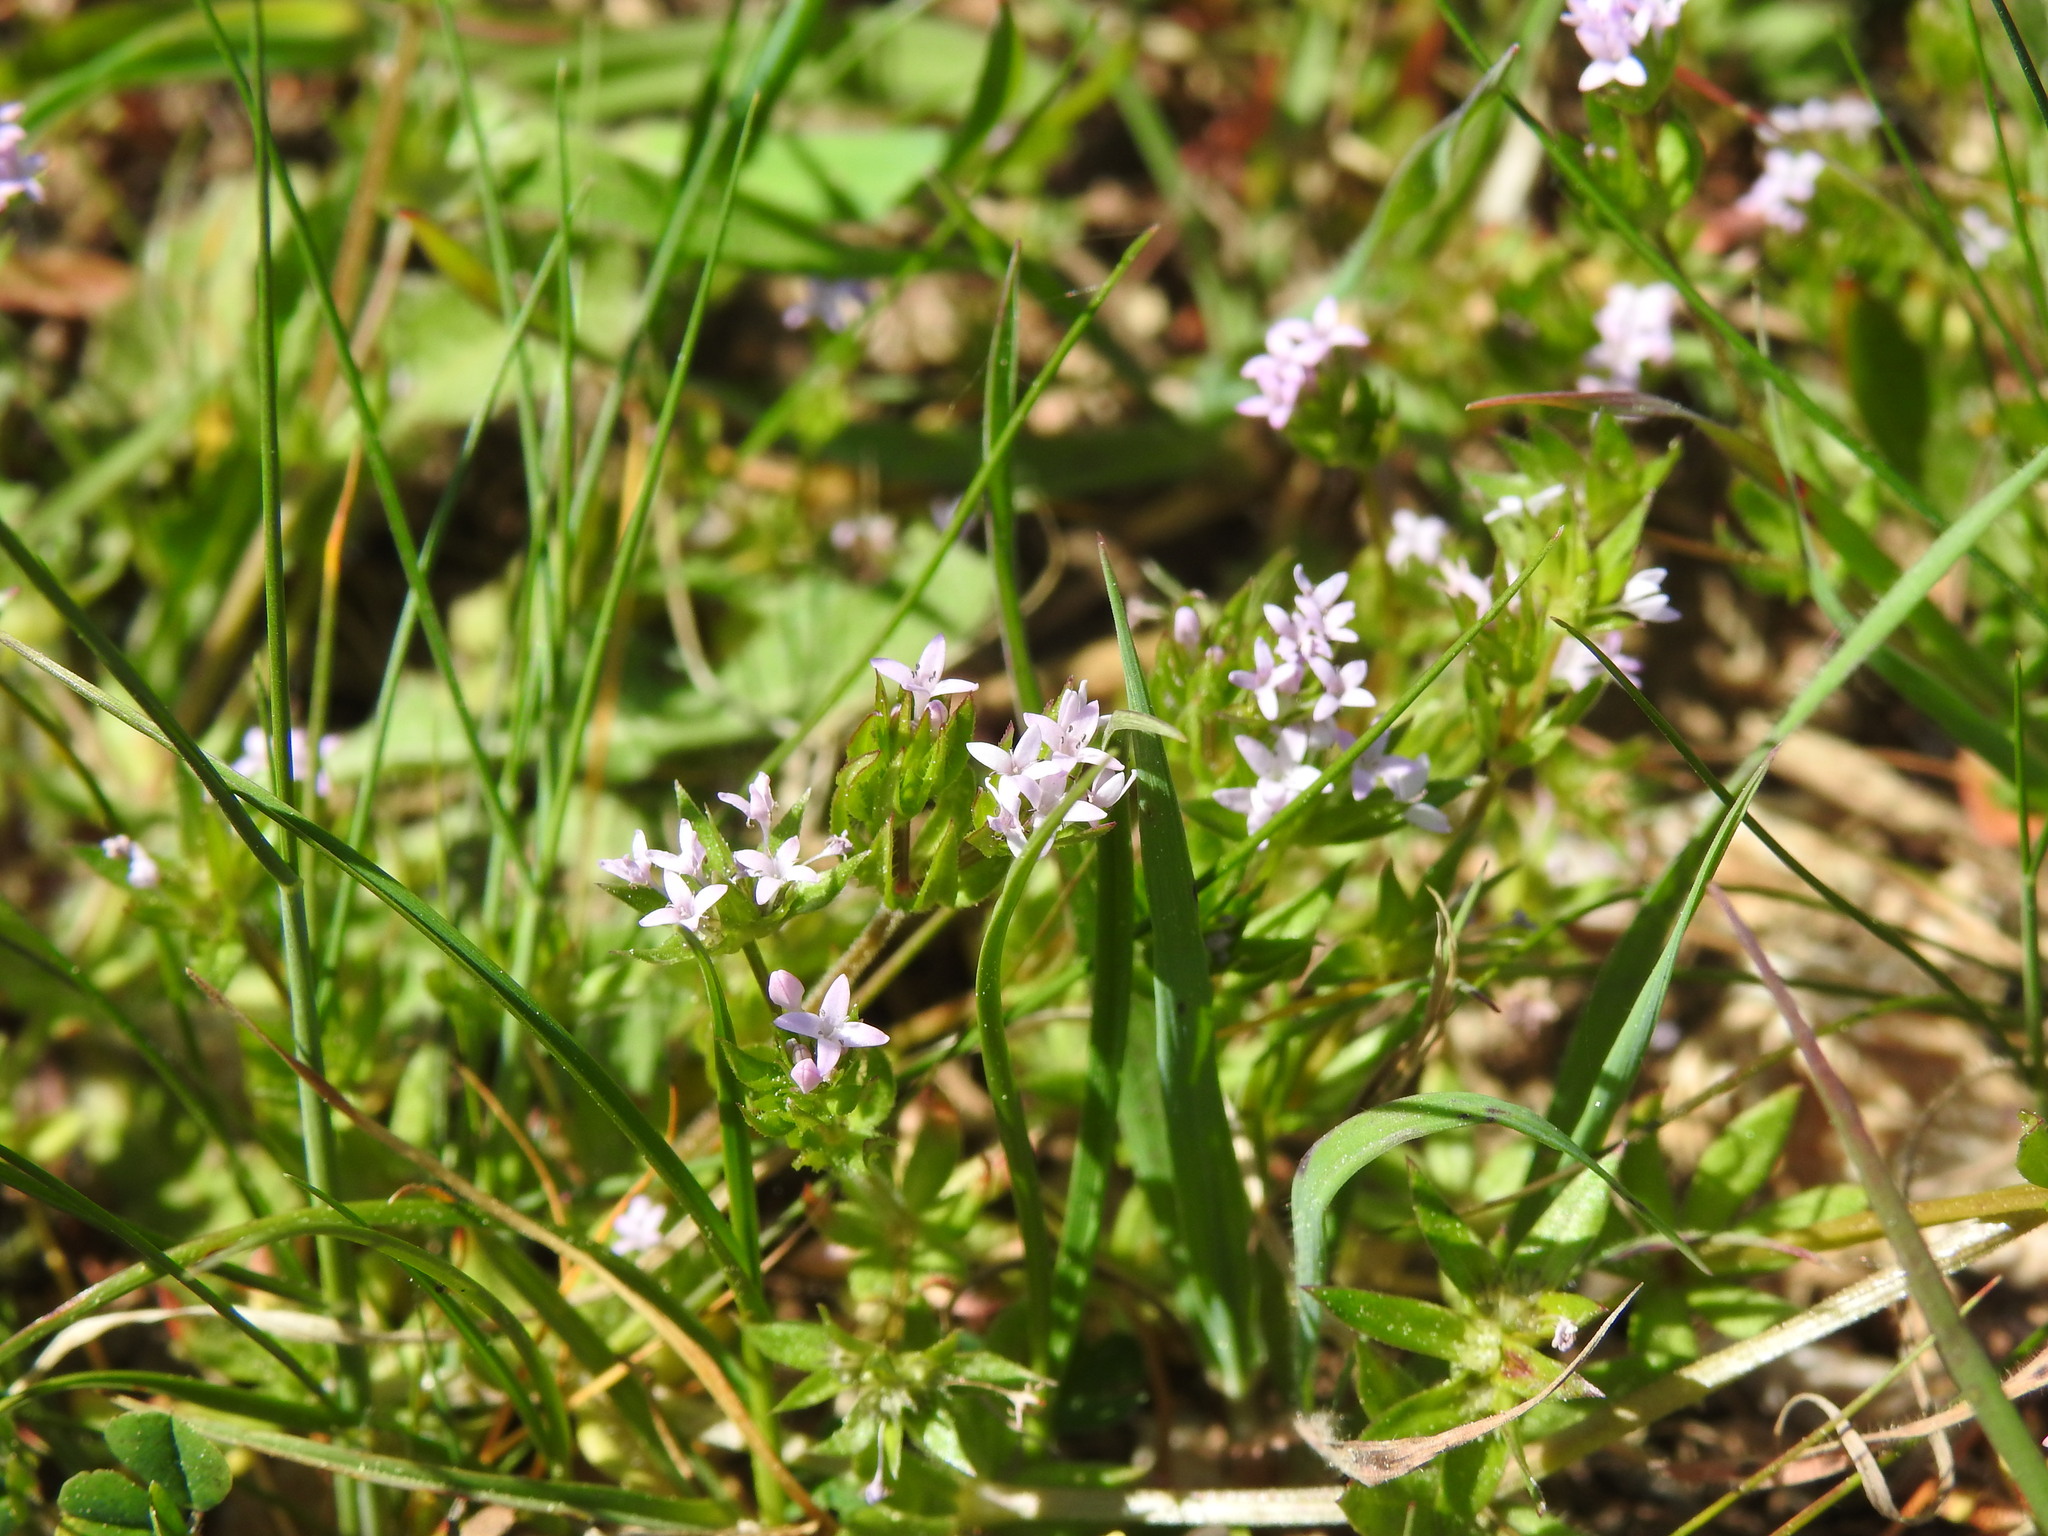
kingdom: Plantae
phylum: Tracheophyta
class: Magnoliopsida
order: Gentianales
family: Rubiaceae
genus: Sherardia
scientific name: Sherardia arvensis
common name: Field madder
